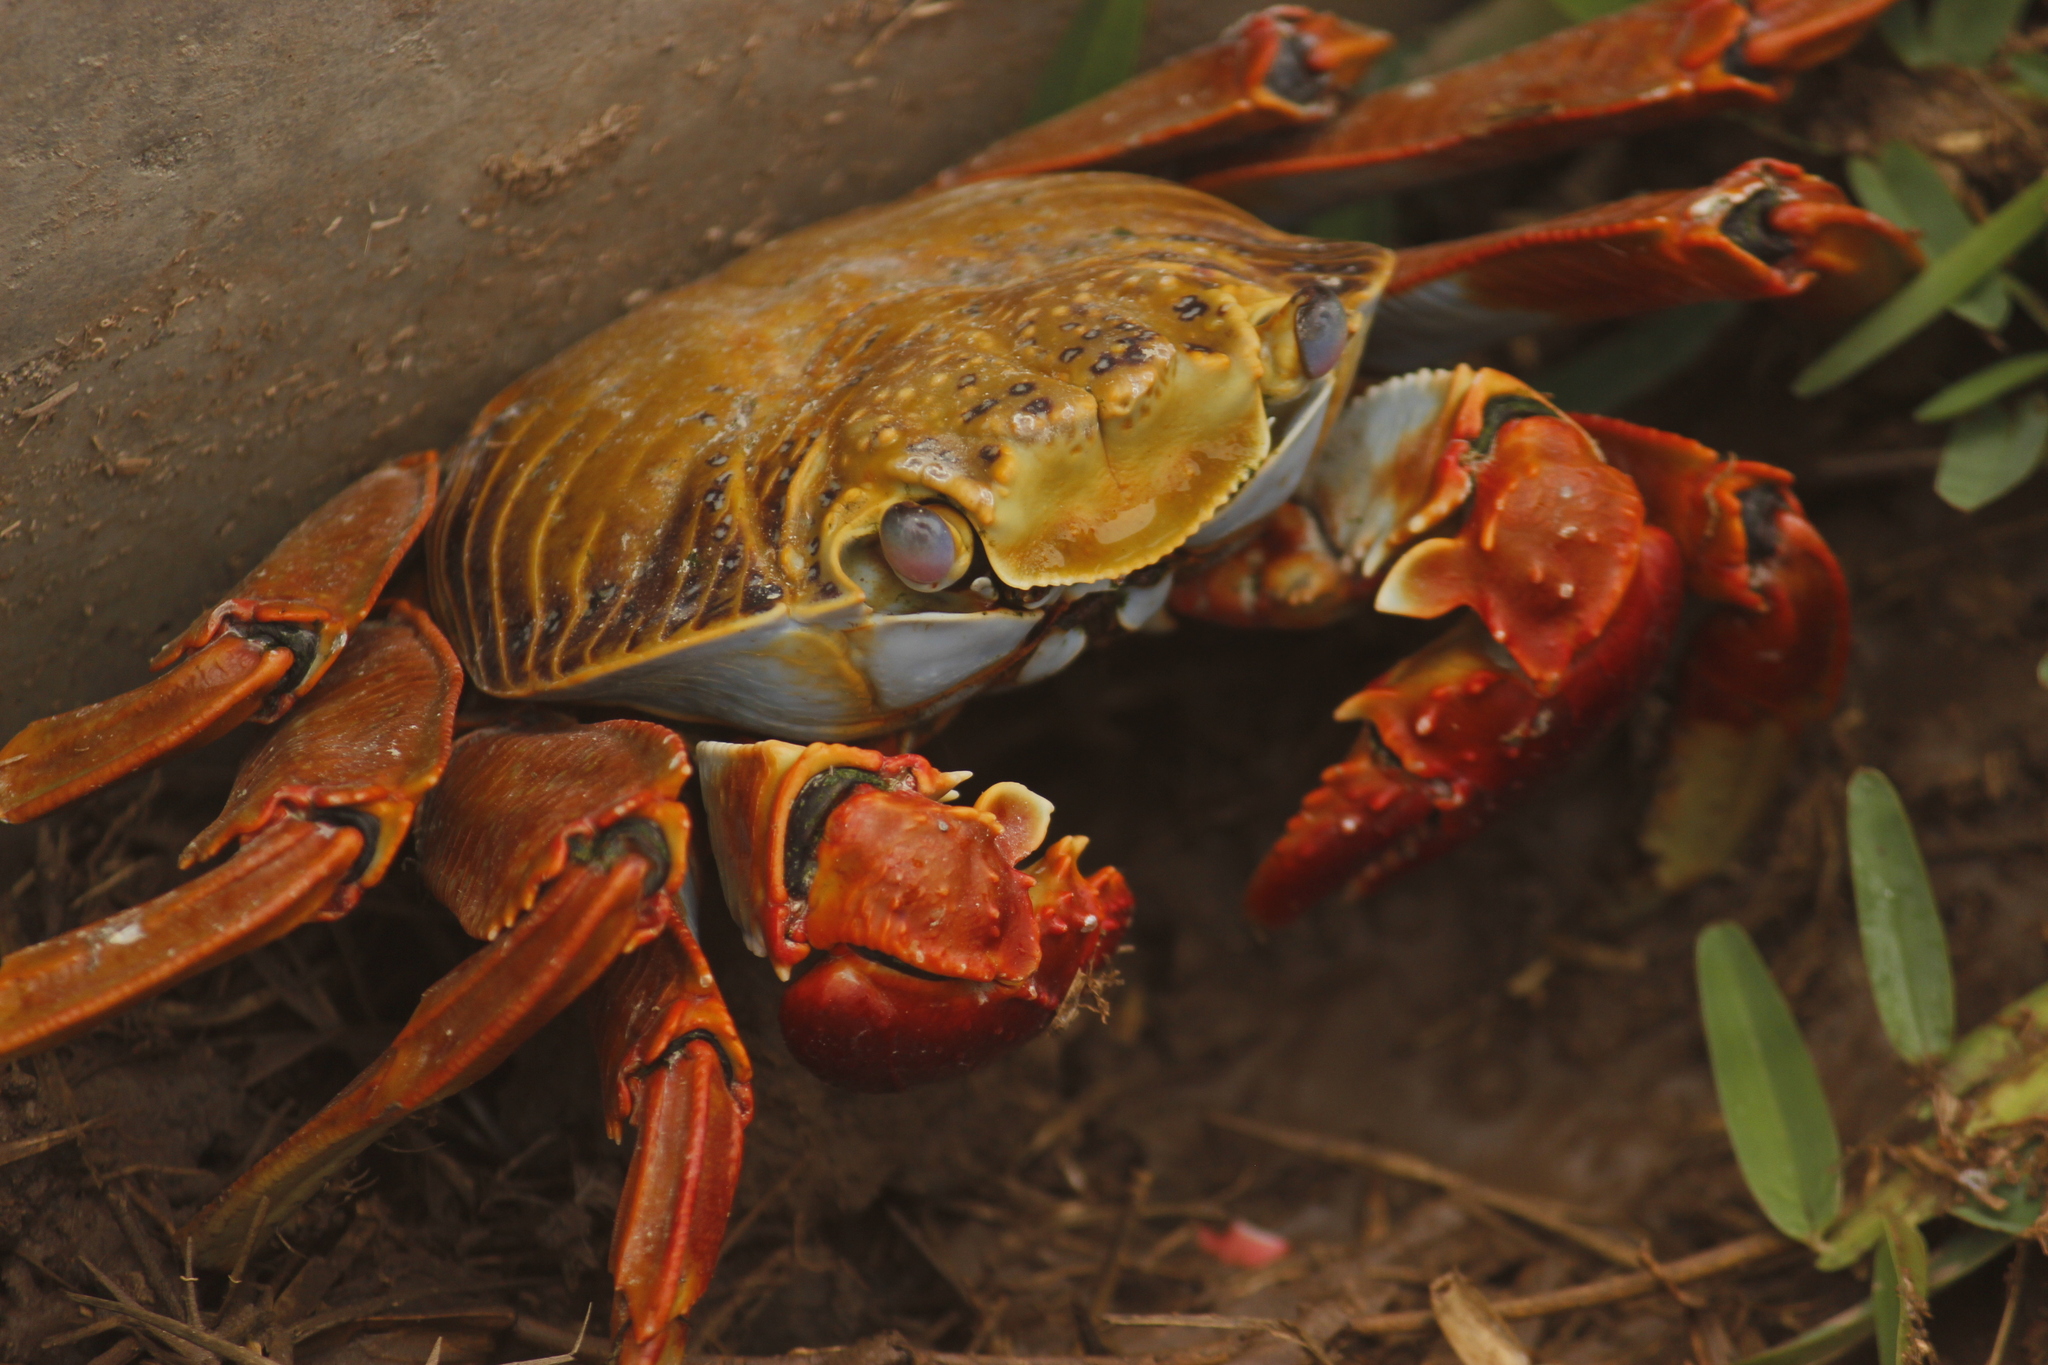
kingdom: Animalia
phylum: Arthropoda
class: Malacostraca
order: Decapoda
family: Grapsidae
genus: Grapsus
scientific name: Grapsus grapsus
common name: Sally lightfoot
